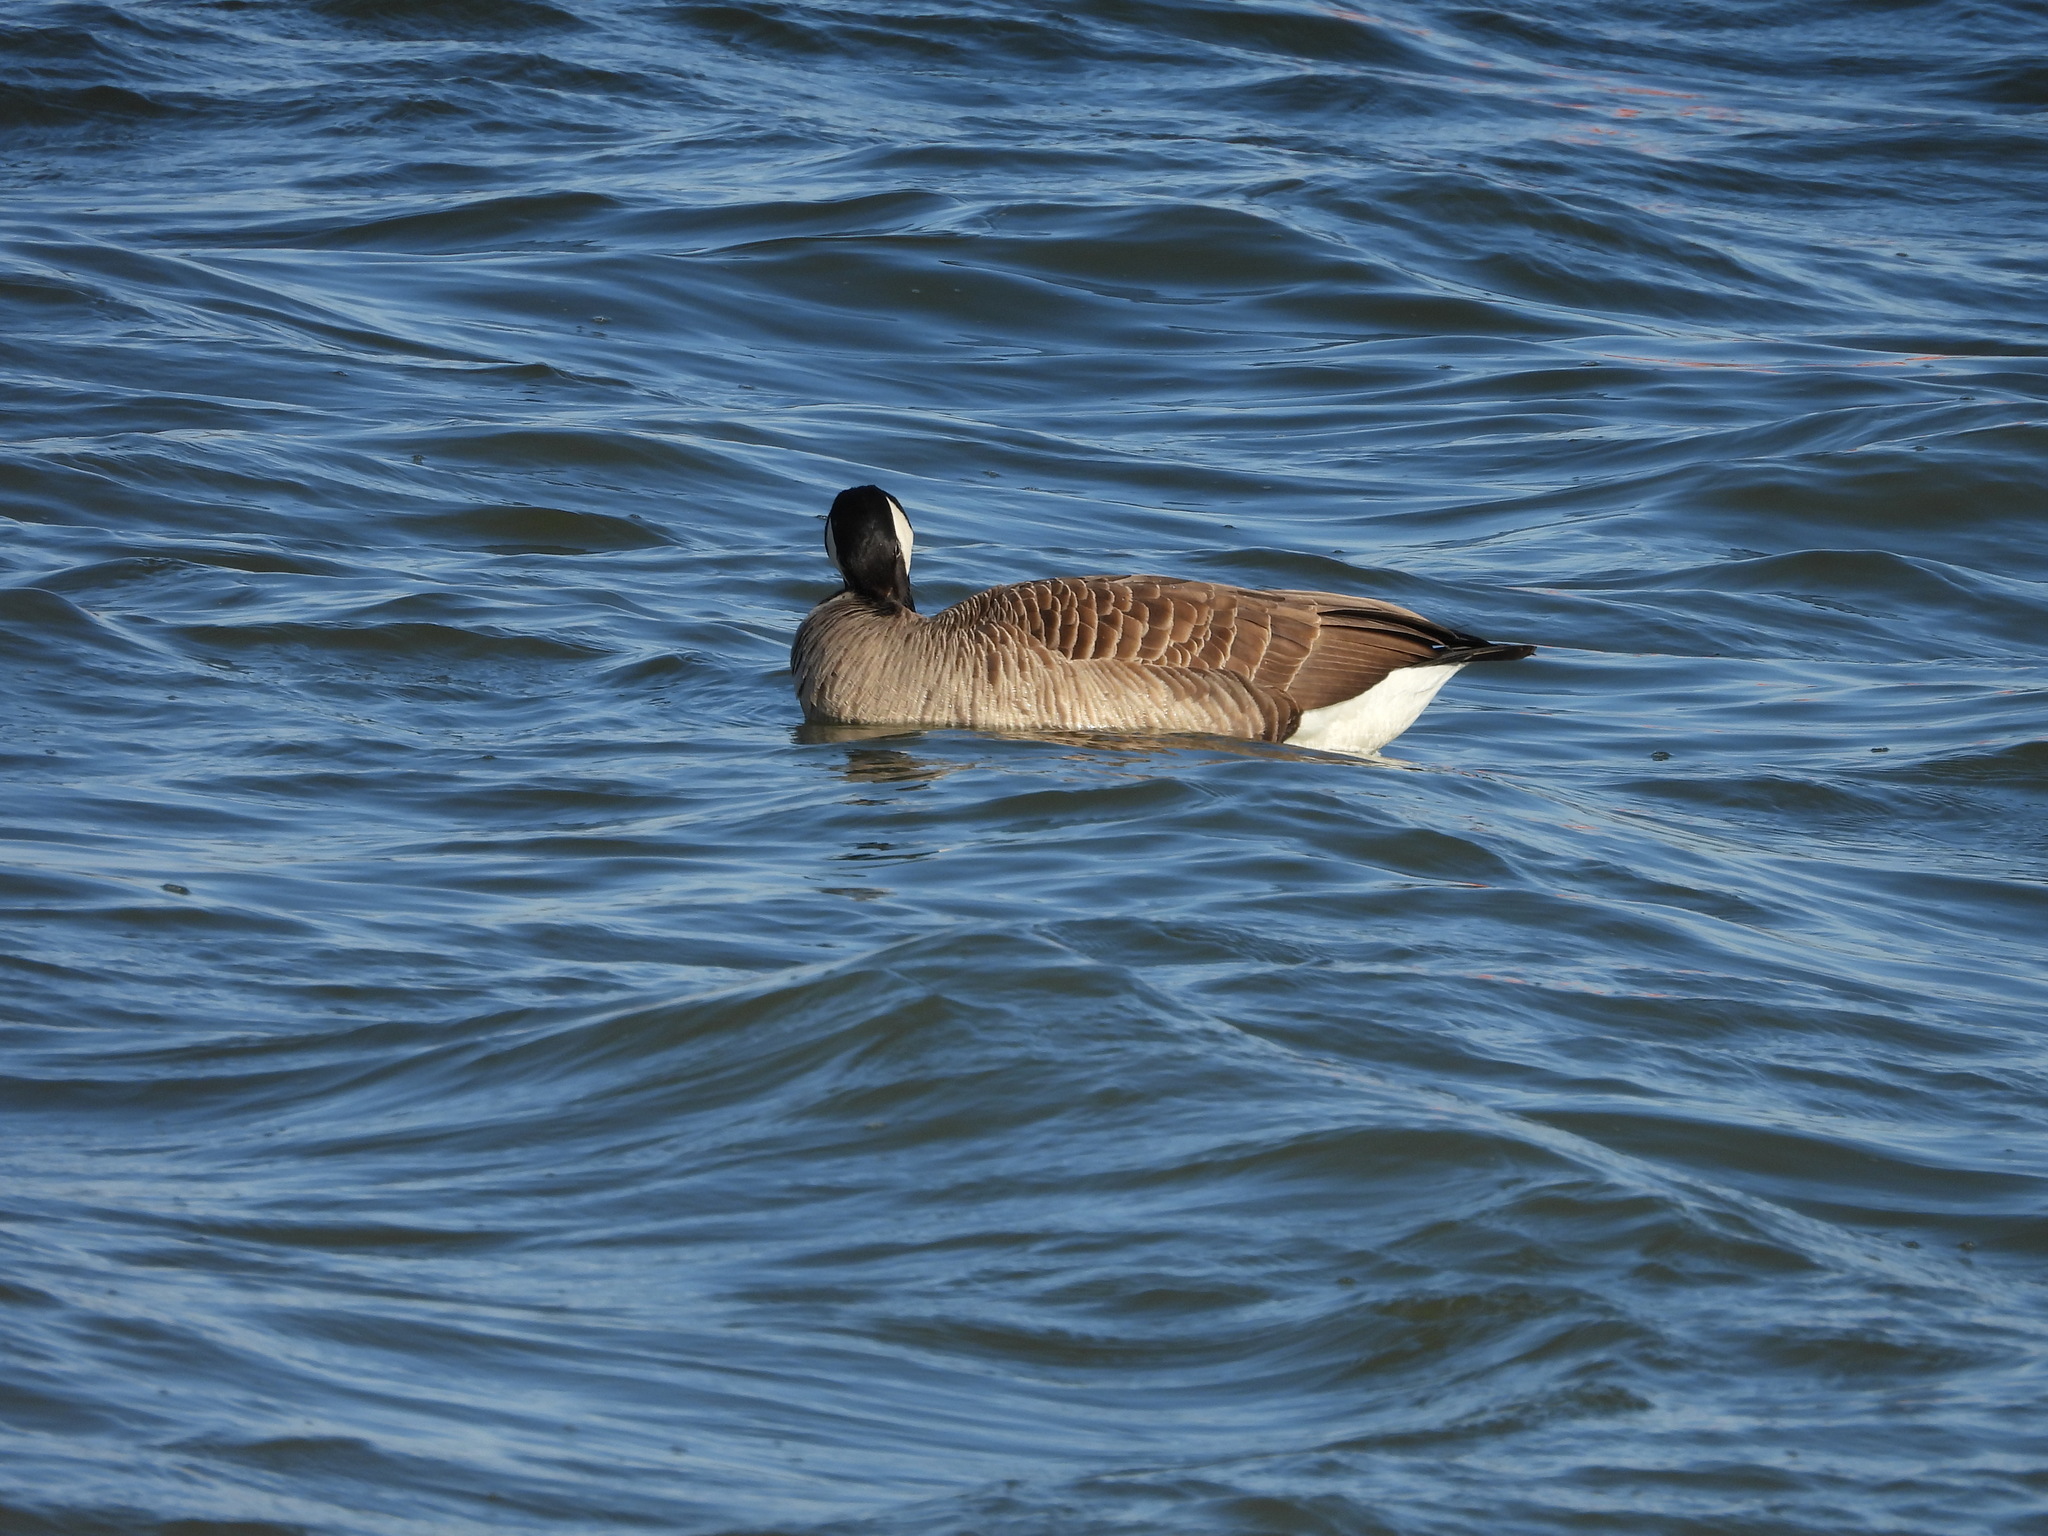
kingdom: Animalia
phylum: Chordata
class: Aves
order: Anseriformes
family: Anatidae
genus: Branta
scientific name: Branta canadensis
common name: Canada goose
